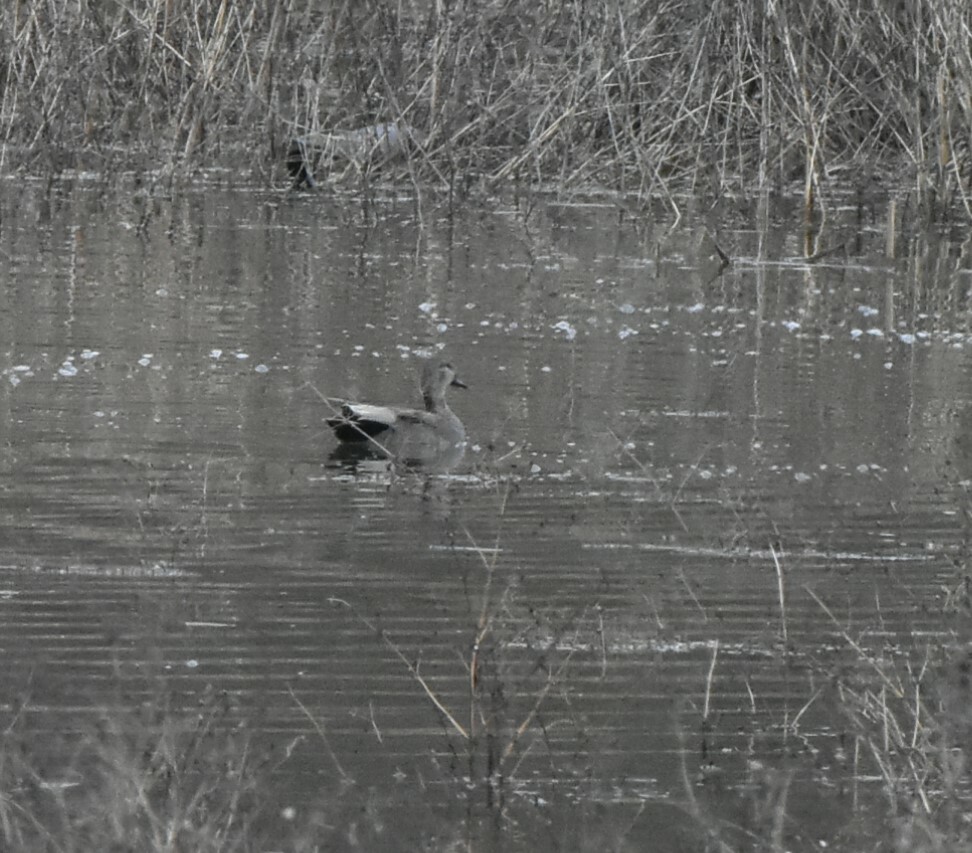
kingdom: Animalia
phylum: Chordata
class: Aves
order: Anseriformes
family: Anatidae
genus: Mareca
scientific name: Mareca strepera
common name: Gadwall
